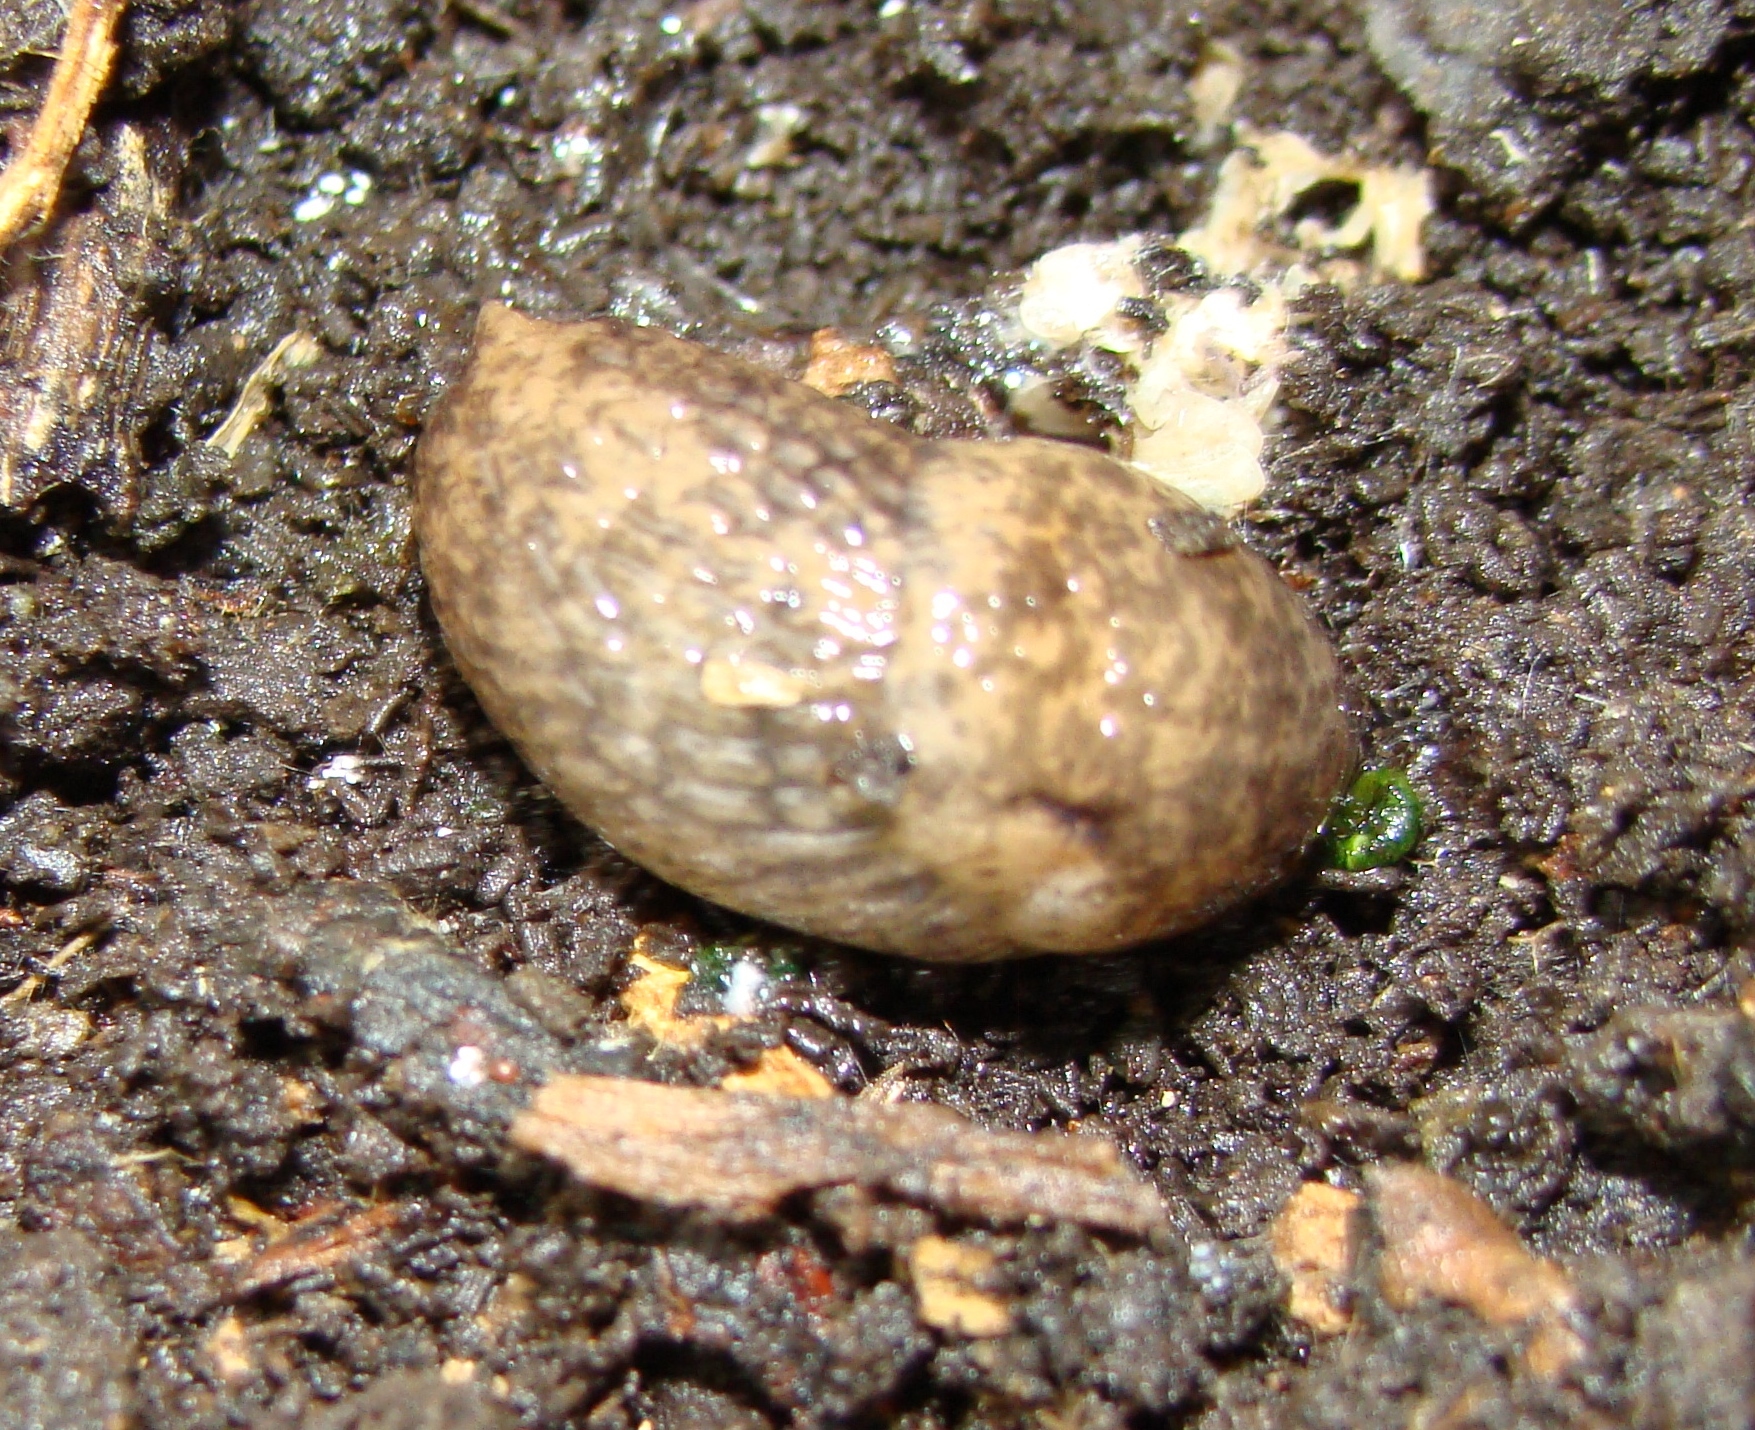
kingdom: Animalia
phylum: Mollusca
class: Gastropoda
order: Stylommatophora
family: Agriolimacidae
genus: Deroceras
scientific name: Deroceras reticulatum
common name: Gray field slug
